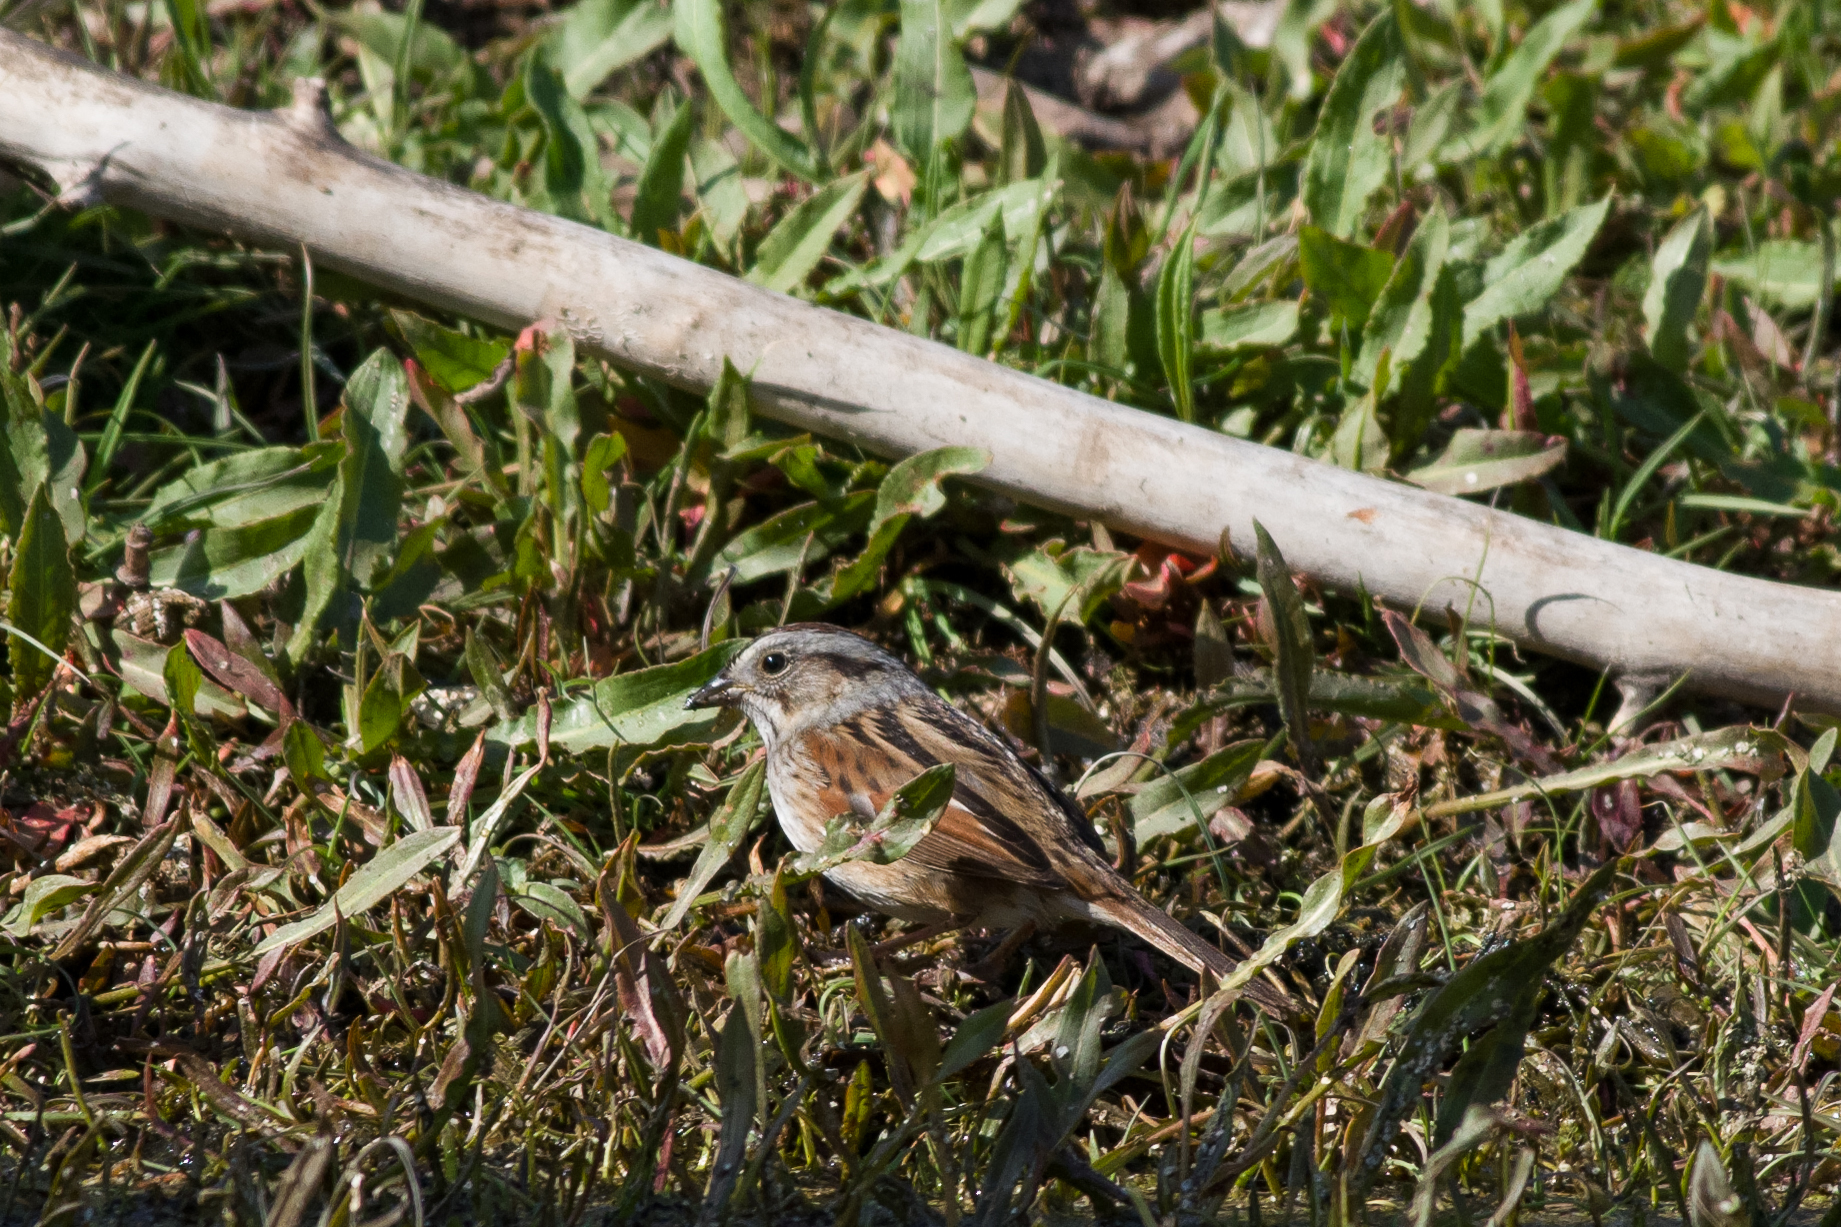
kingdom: Animalia
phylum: Chordata
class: Aves
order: Passeriformes
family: Passerellidae
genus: Melospiza
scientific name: Melospiza georgiana
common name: Swamp sparrow
